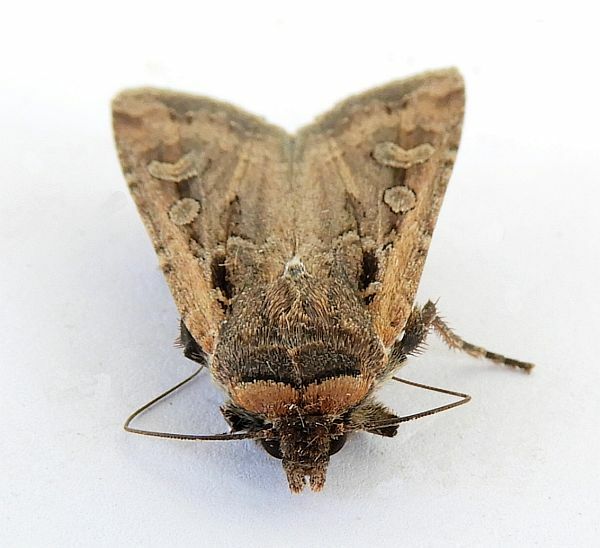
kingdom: Animalia
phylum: Arthropoda
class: Insecta
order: Lepidoptera
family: Noctuidae
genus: Euxoa
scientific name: Euxoa auxiliaris
